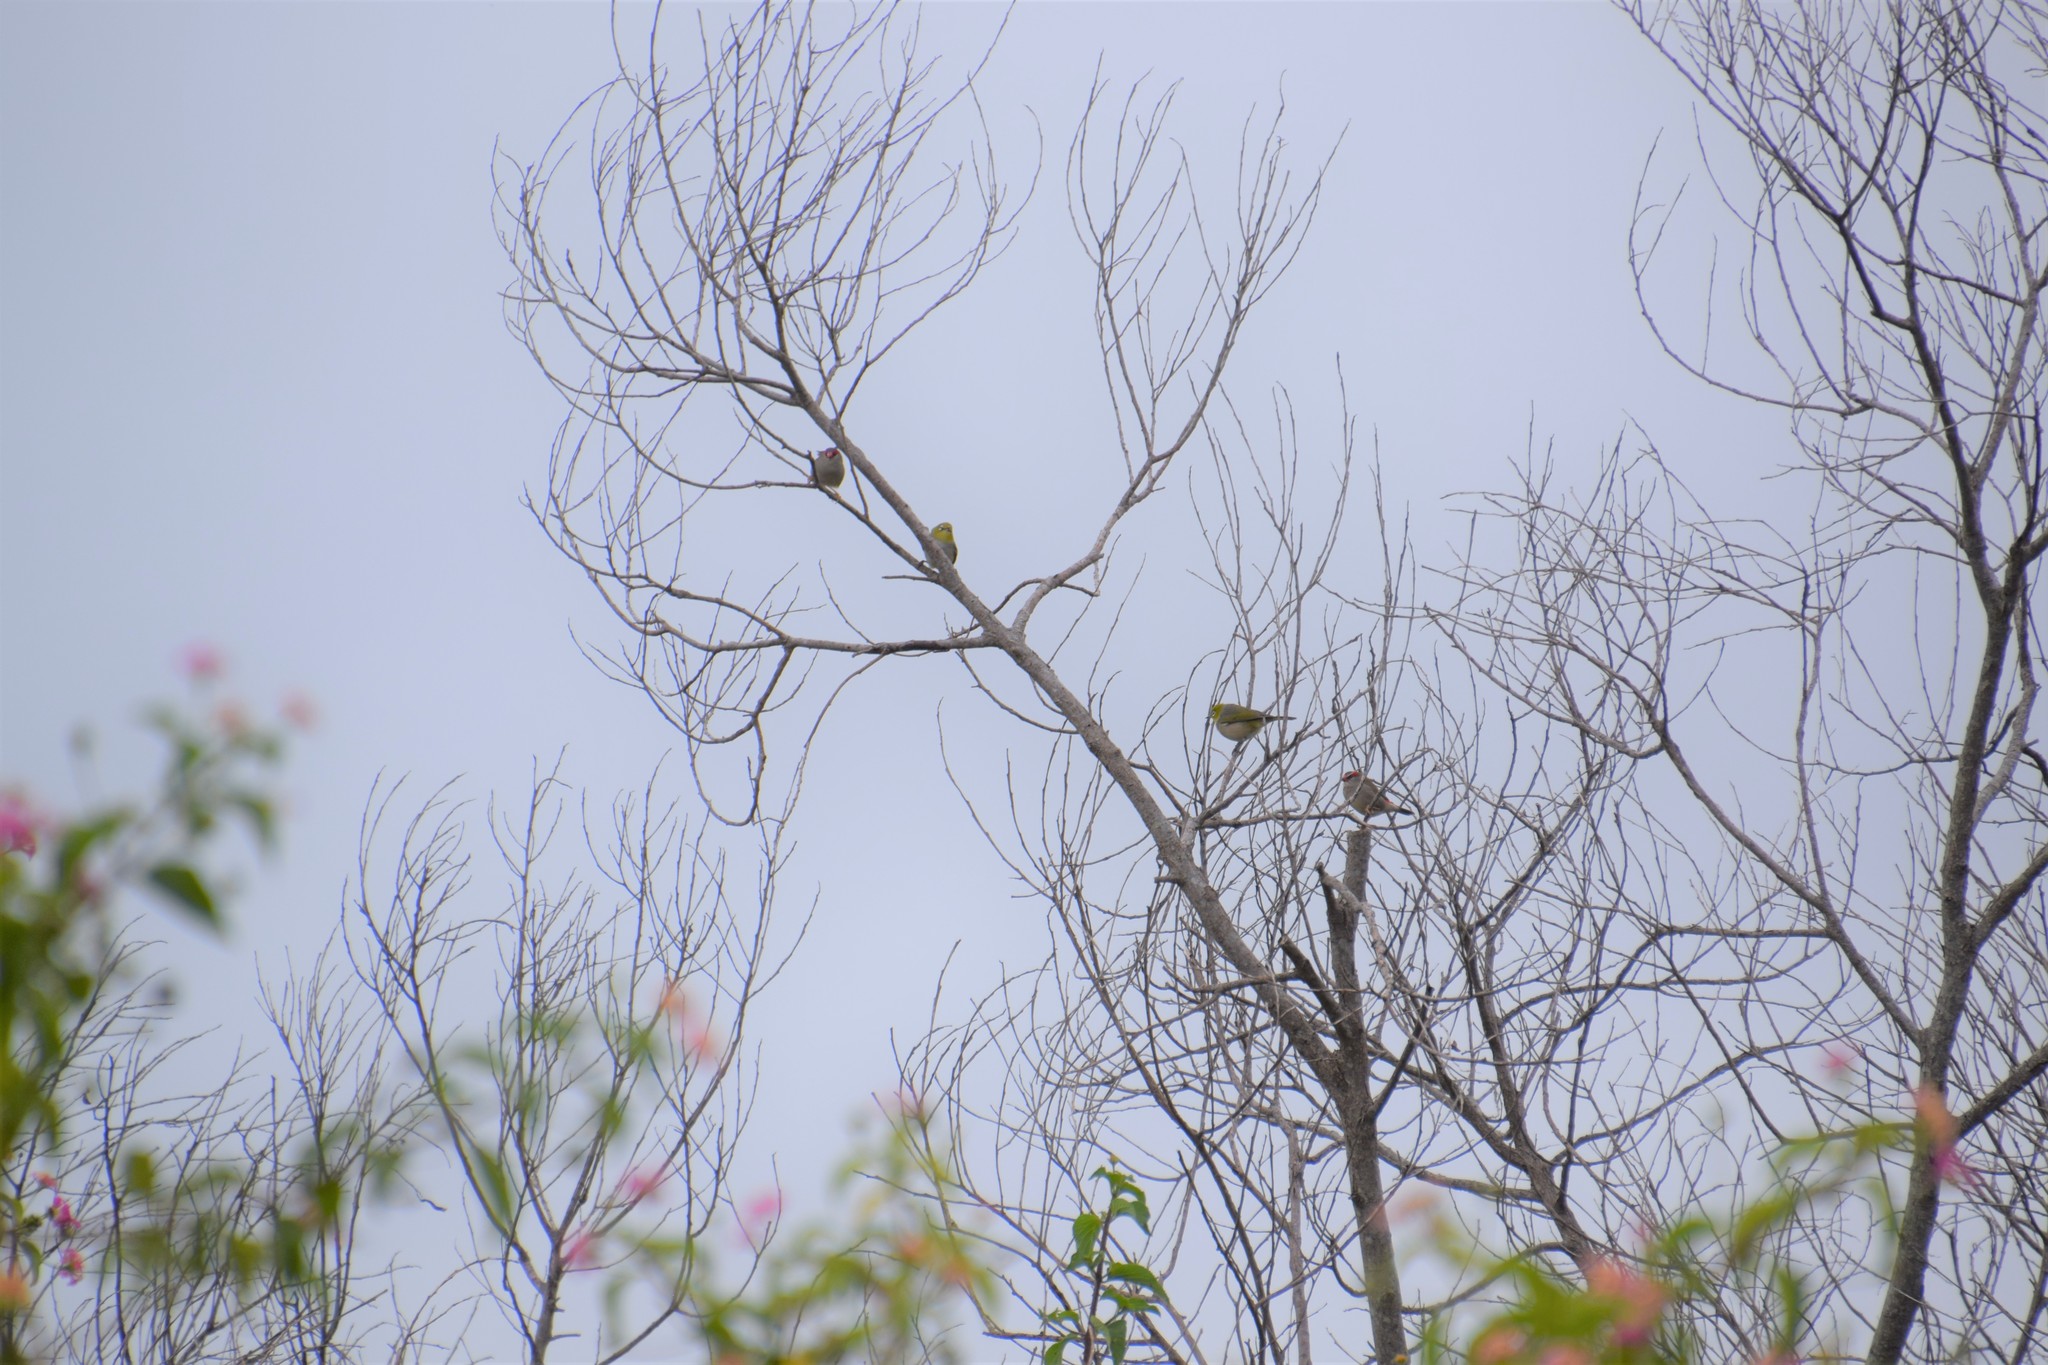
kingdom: Animalia
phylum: Chordata
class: Aves
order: Passeriformes
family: Zosteropidae
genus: Zosterops
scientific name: Zosterops lateralis
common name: Silvereye
